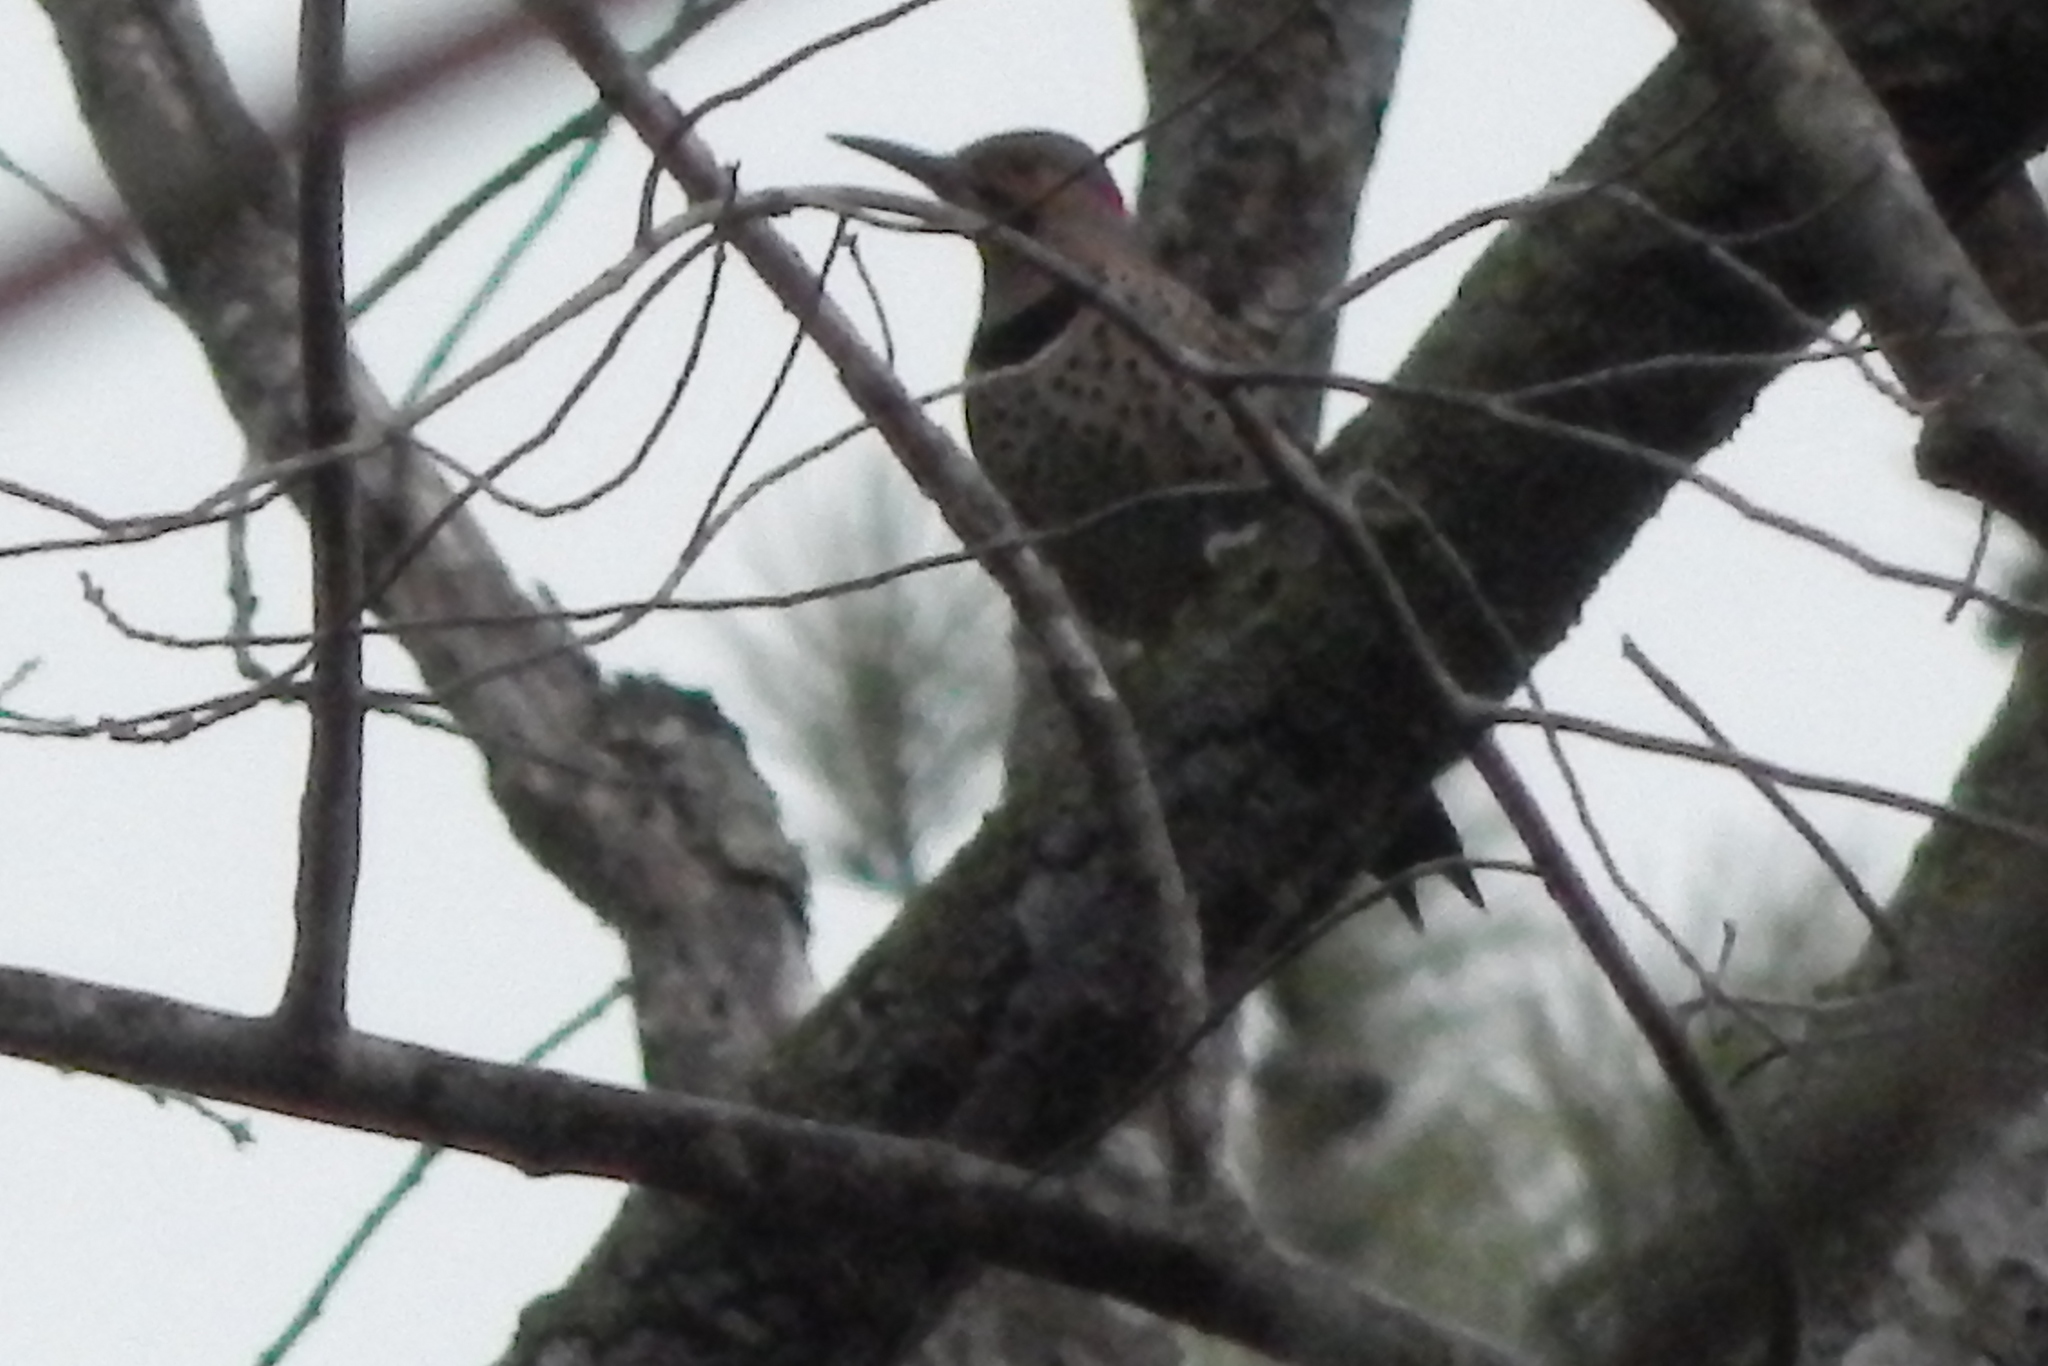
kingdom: Animalia
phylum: Chordata
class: Aves
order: Piciformes
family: Picidae
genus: Colaptes
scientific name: Colaptes auratus
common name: Northern flicker
